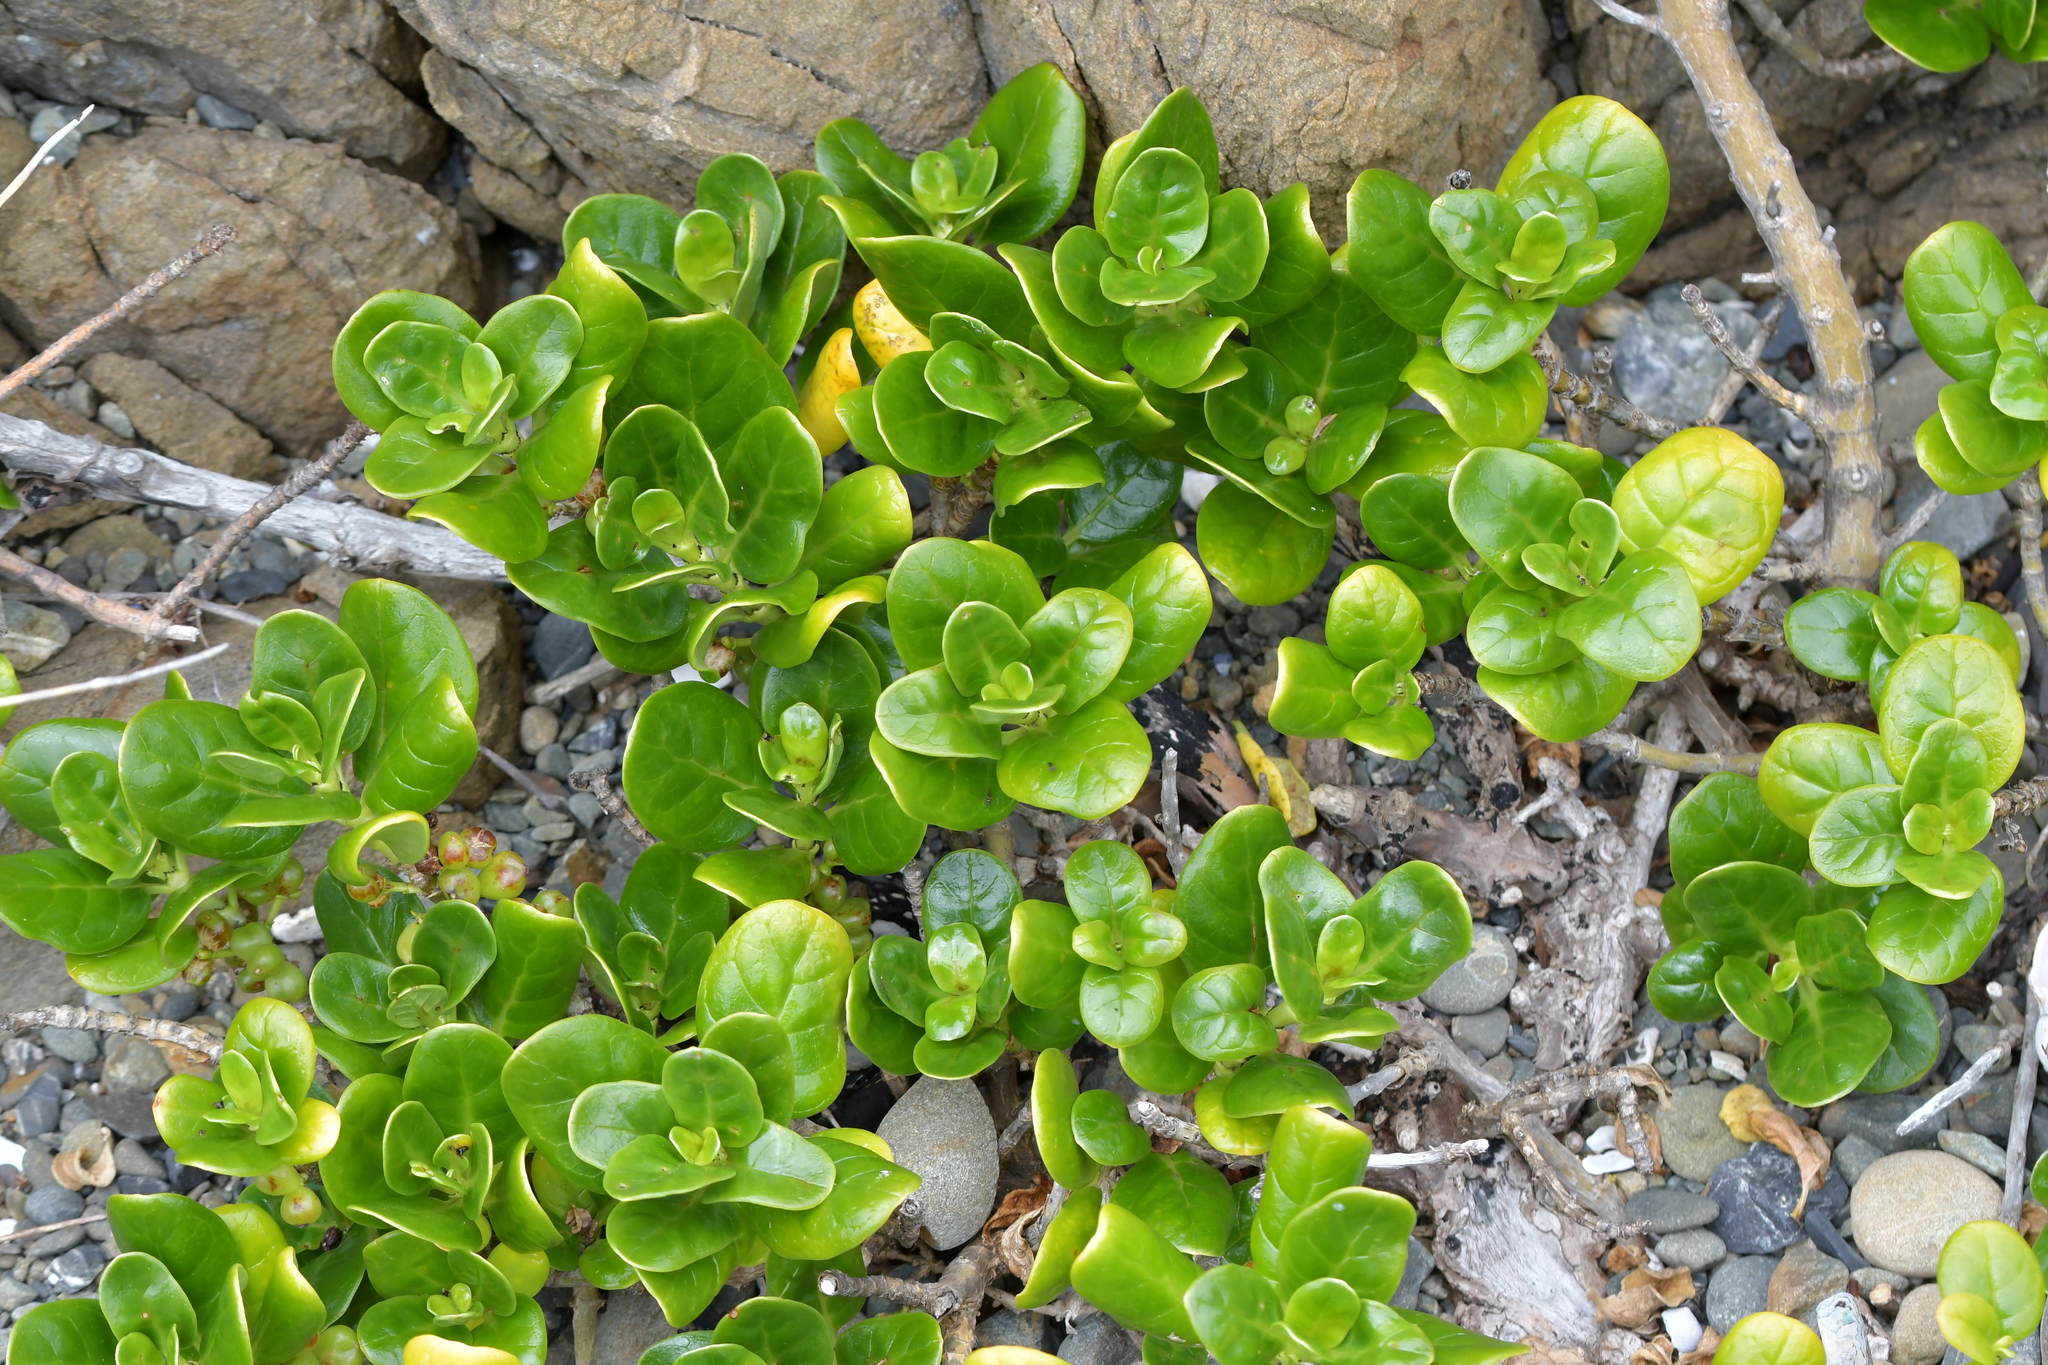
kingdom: Plantae
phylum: Tracheophyta
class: Magnoliopsida
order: Gentianales
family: Rubiaceae
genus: Coprosma
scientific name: Coprosma repens
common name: Tree bedstraw
